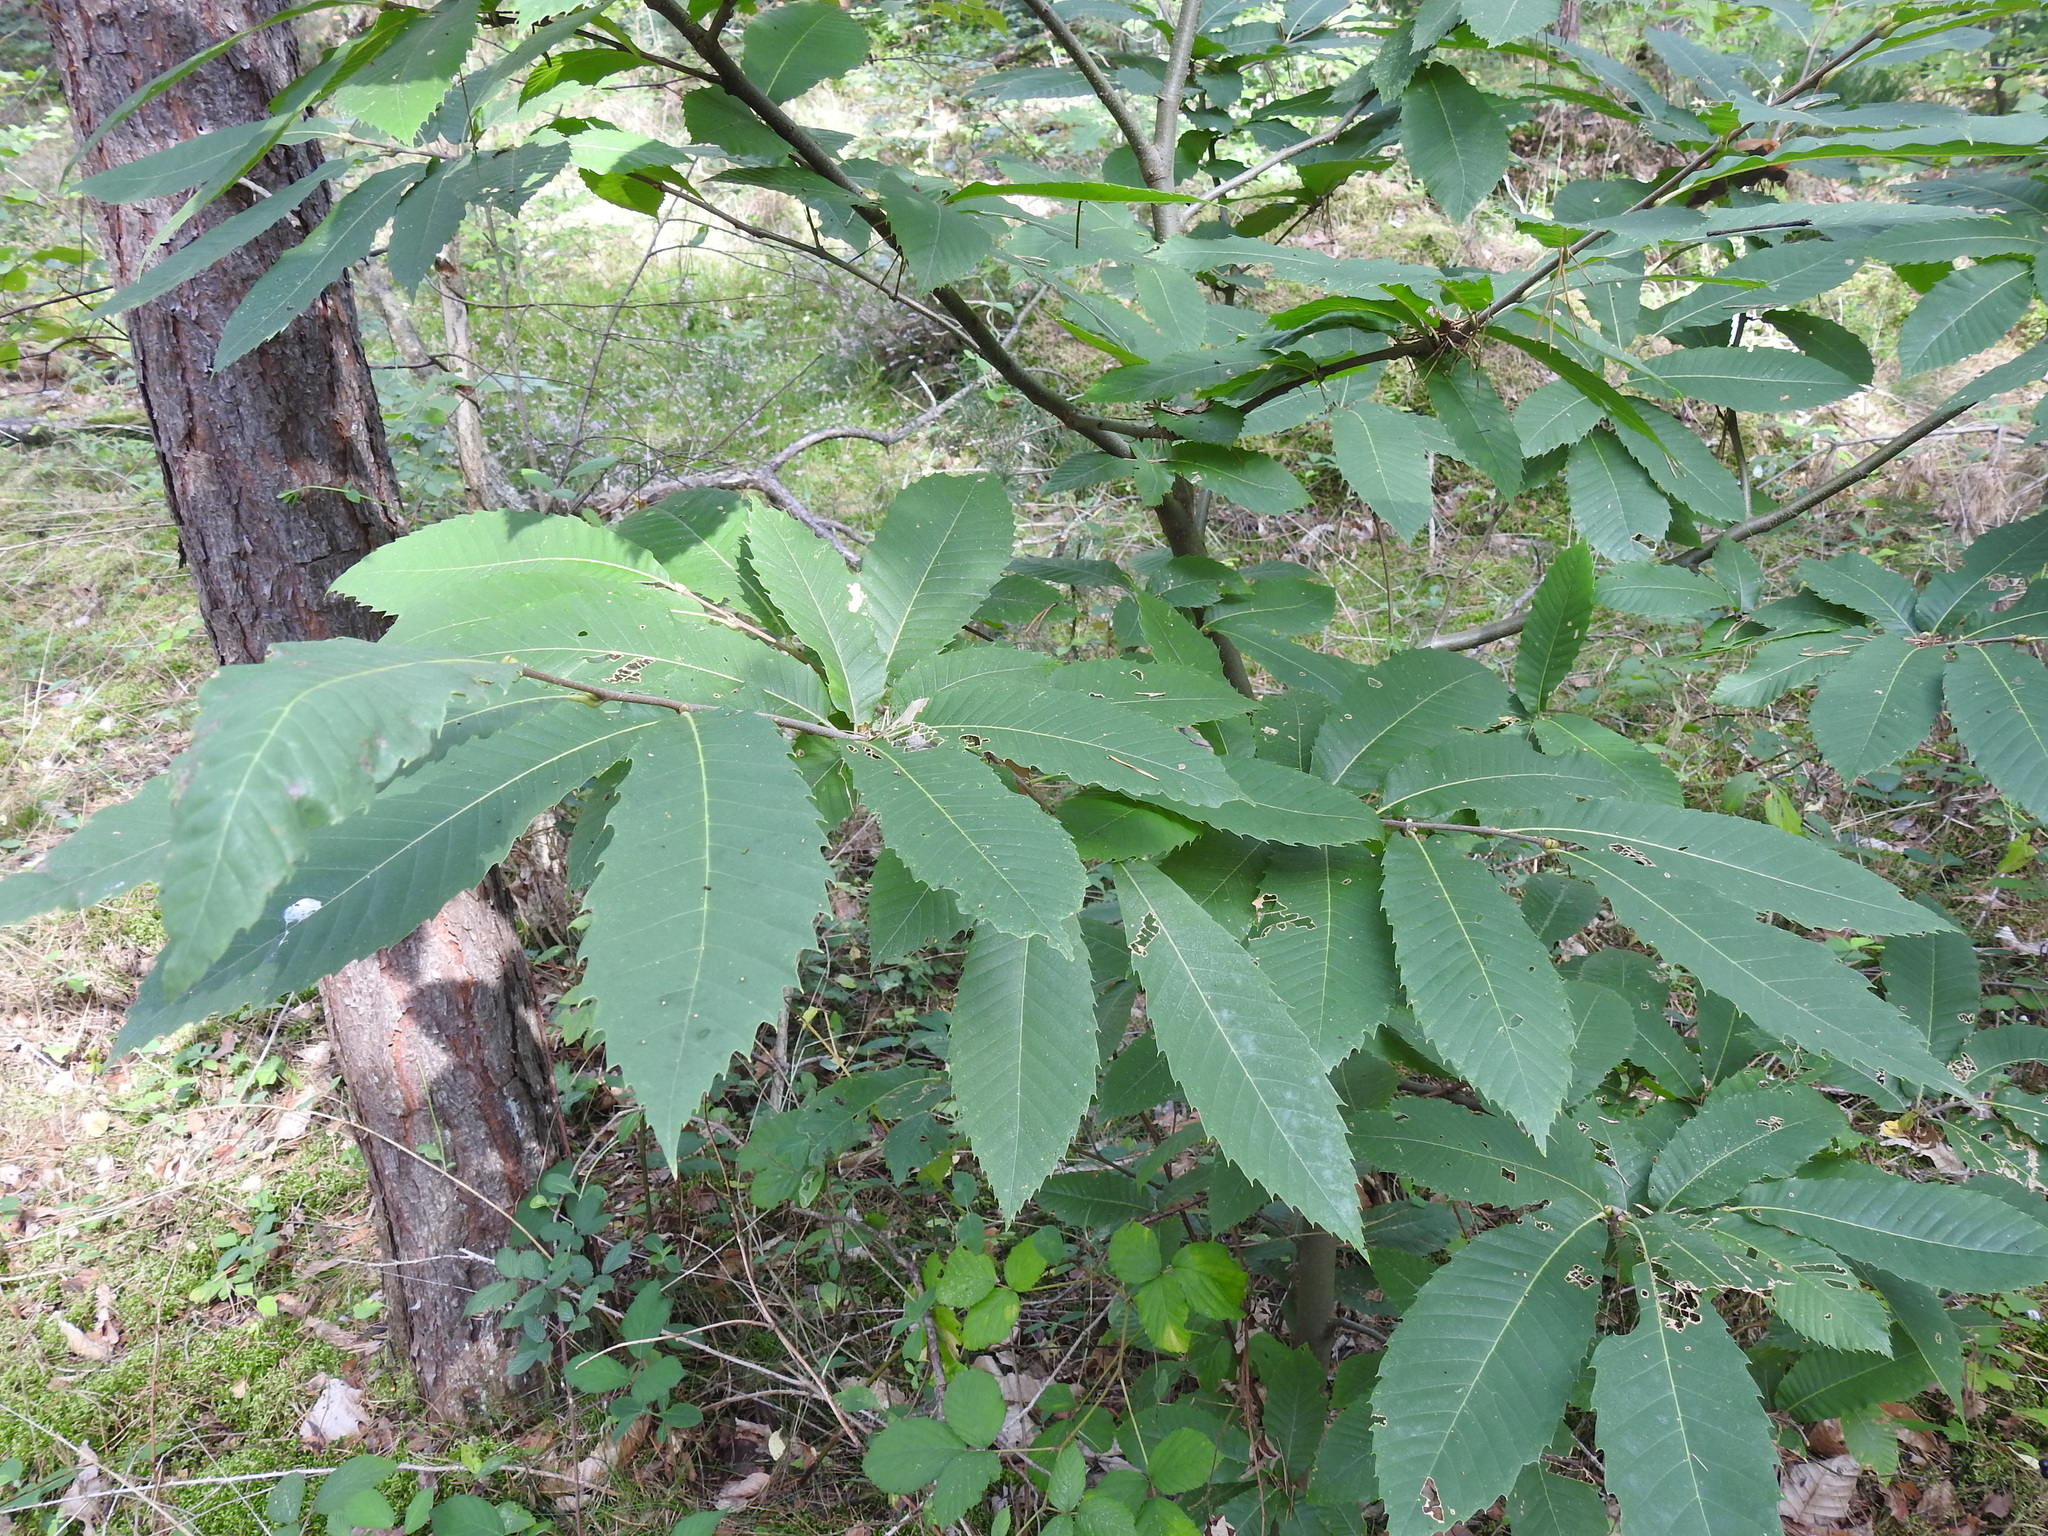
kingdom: Plantae
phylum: Tracheophyta
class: Magnoliopsida
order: Fagales
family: Fagaceae
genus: Castanea
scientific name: Castanea sativa
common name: Sweet chestnut
